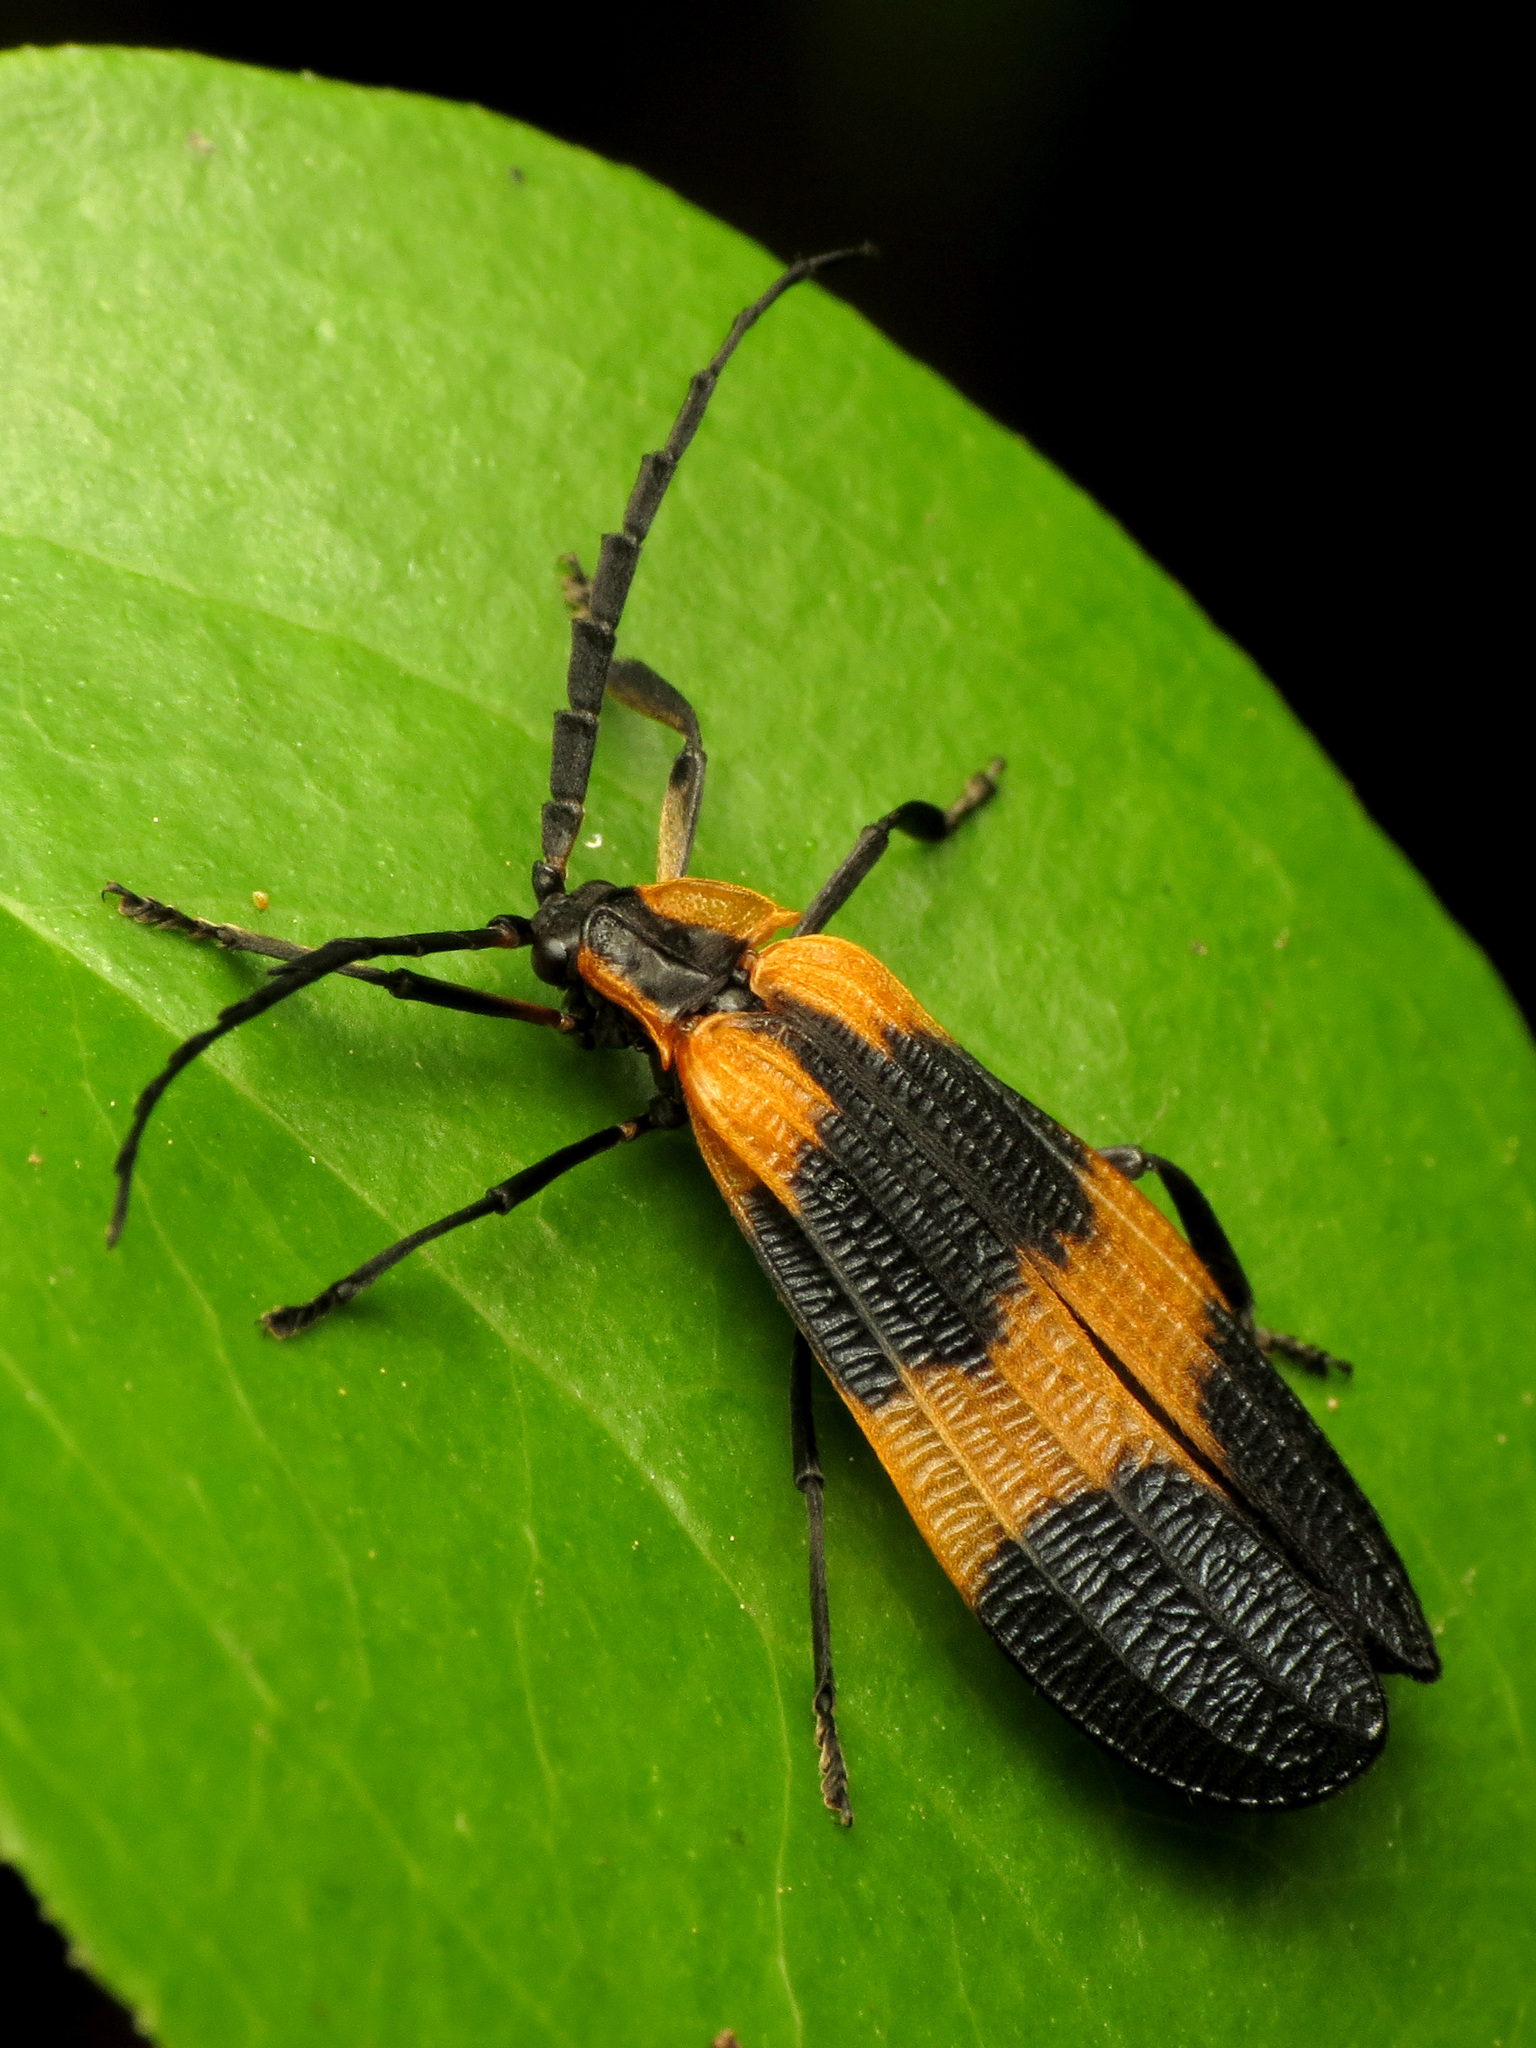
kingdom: Animalia
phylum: Arthropoda
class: Insecta
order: Coleoptera
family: Lycidae
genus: Calopteron
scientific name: Calopteron reticulatum
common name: Banded net-winged beetle
